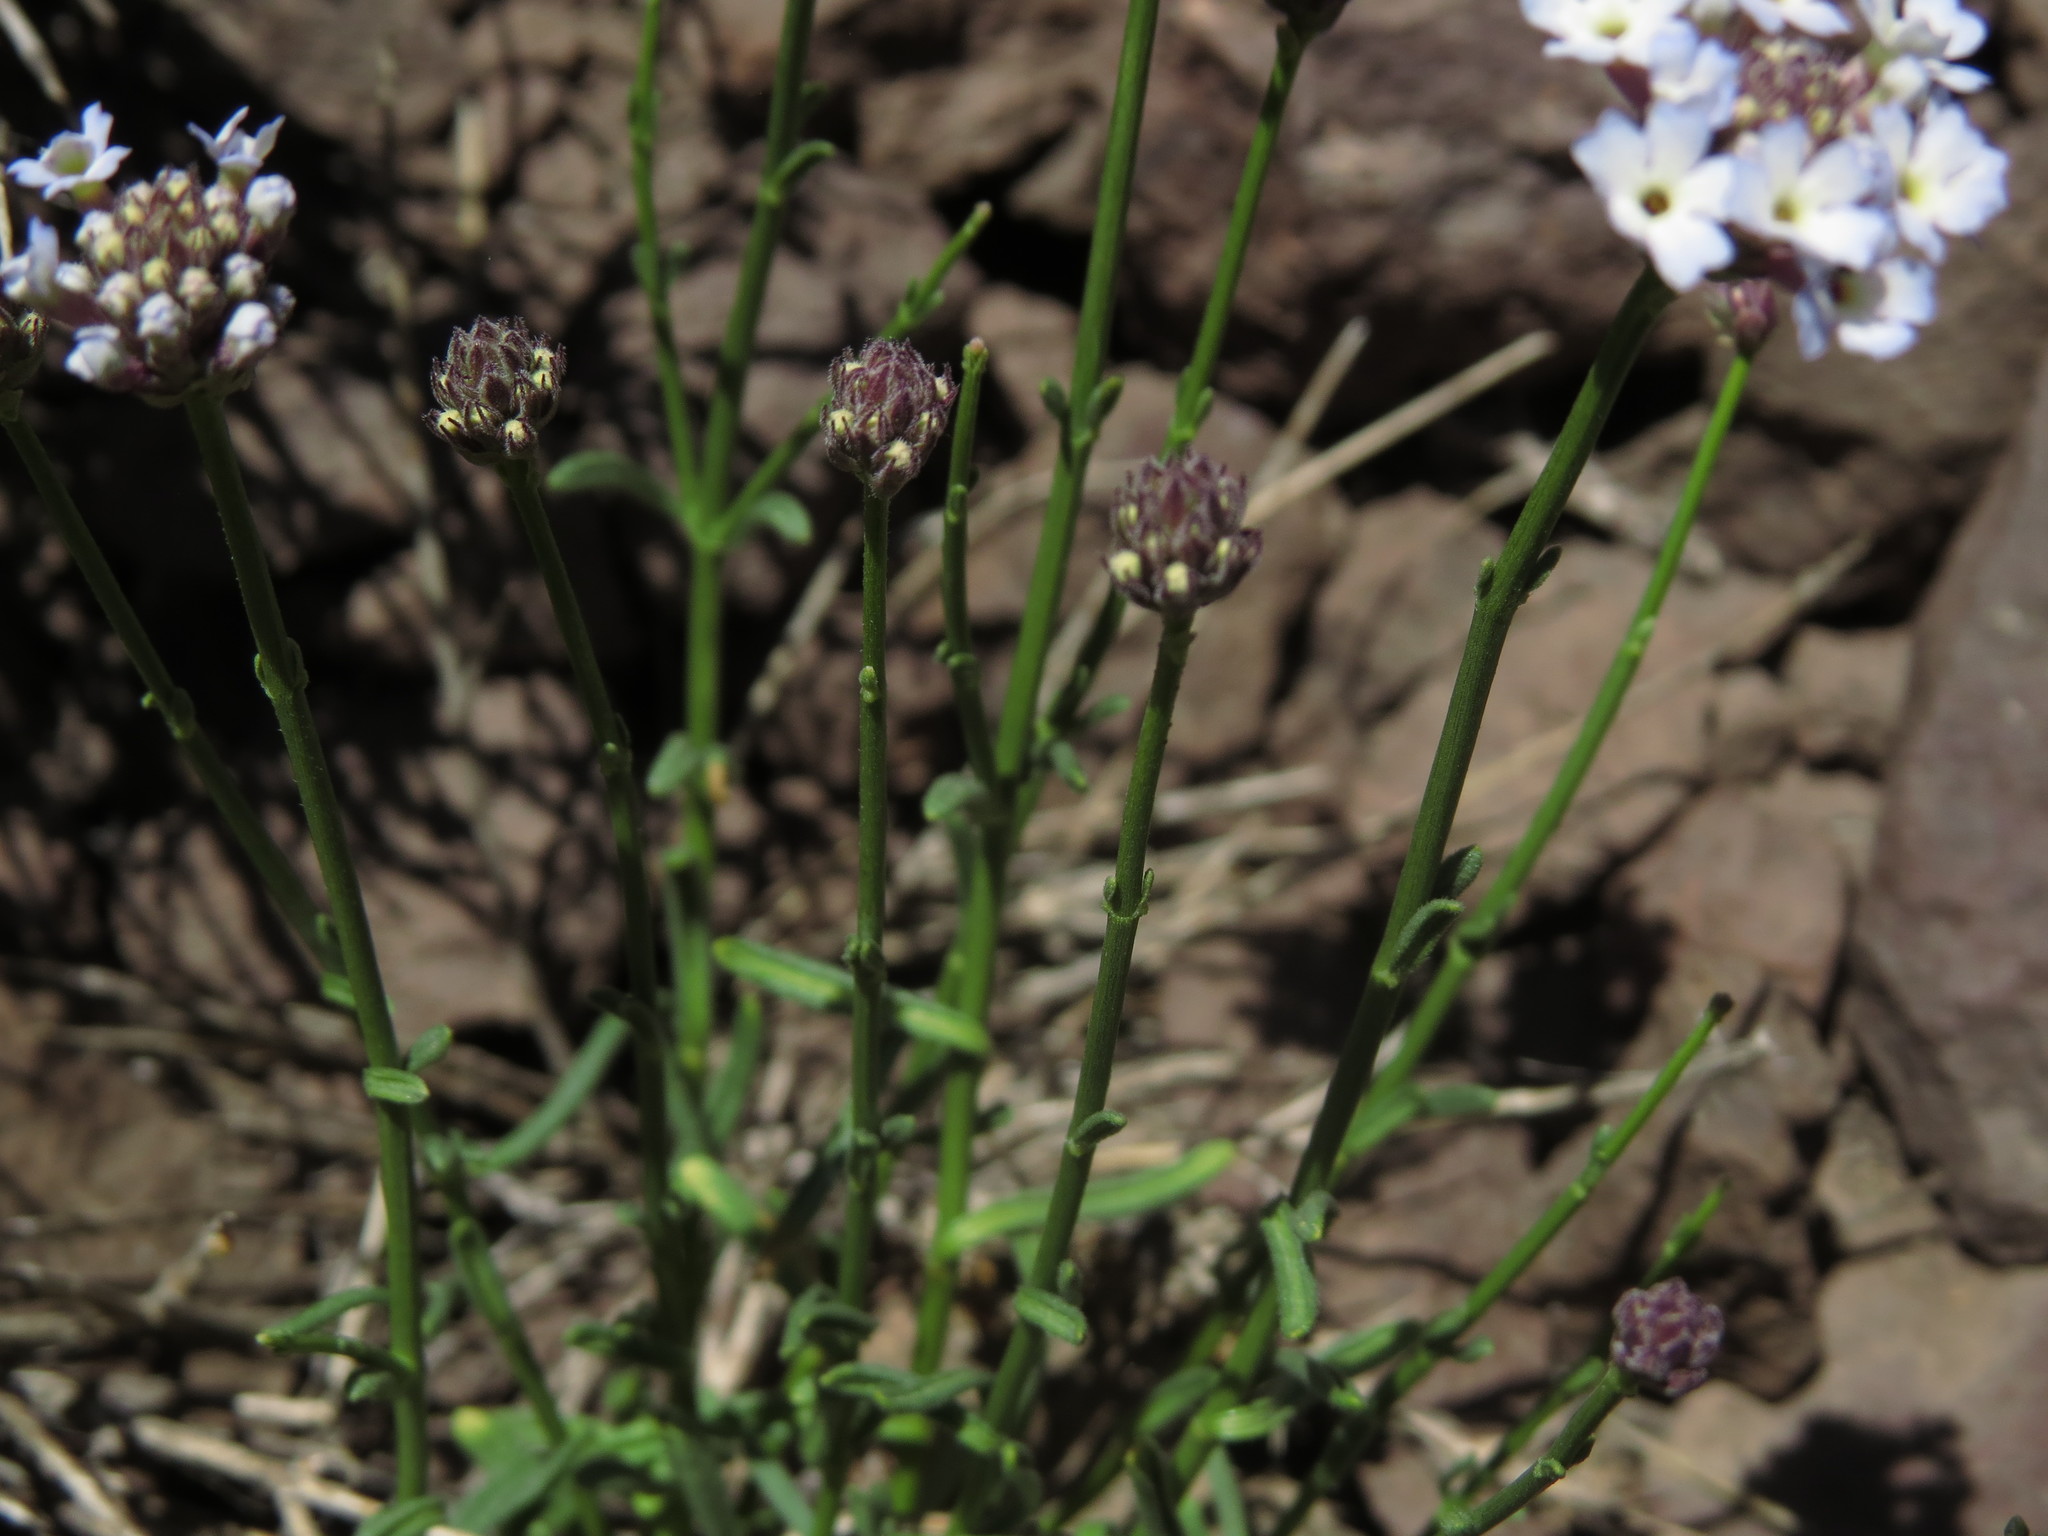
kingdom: Plantae
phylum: Tracheophyta
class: Magnoliopsida
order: Lamiales
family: Verbenaceae
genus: Junellia
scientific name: Junellia spathulata
